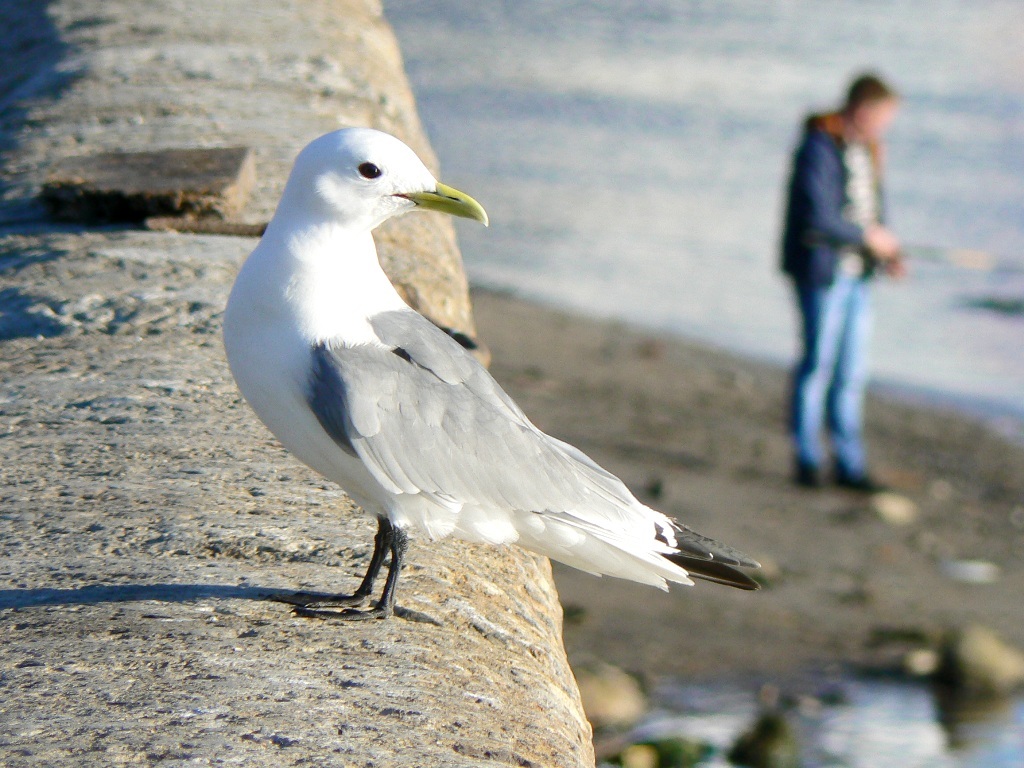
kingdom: Animalia
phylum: Chordata
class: Aves
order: Charadriiformes
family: Laridae
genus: Rissa
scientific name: Rissa tridactyla
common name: Black-legged kittiwake
